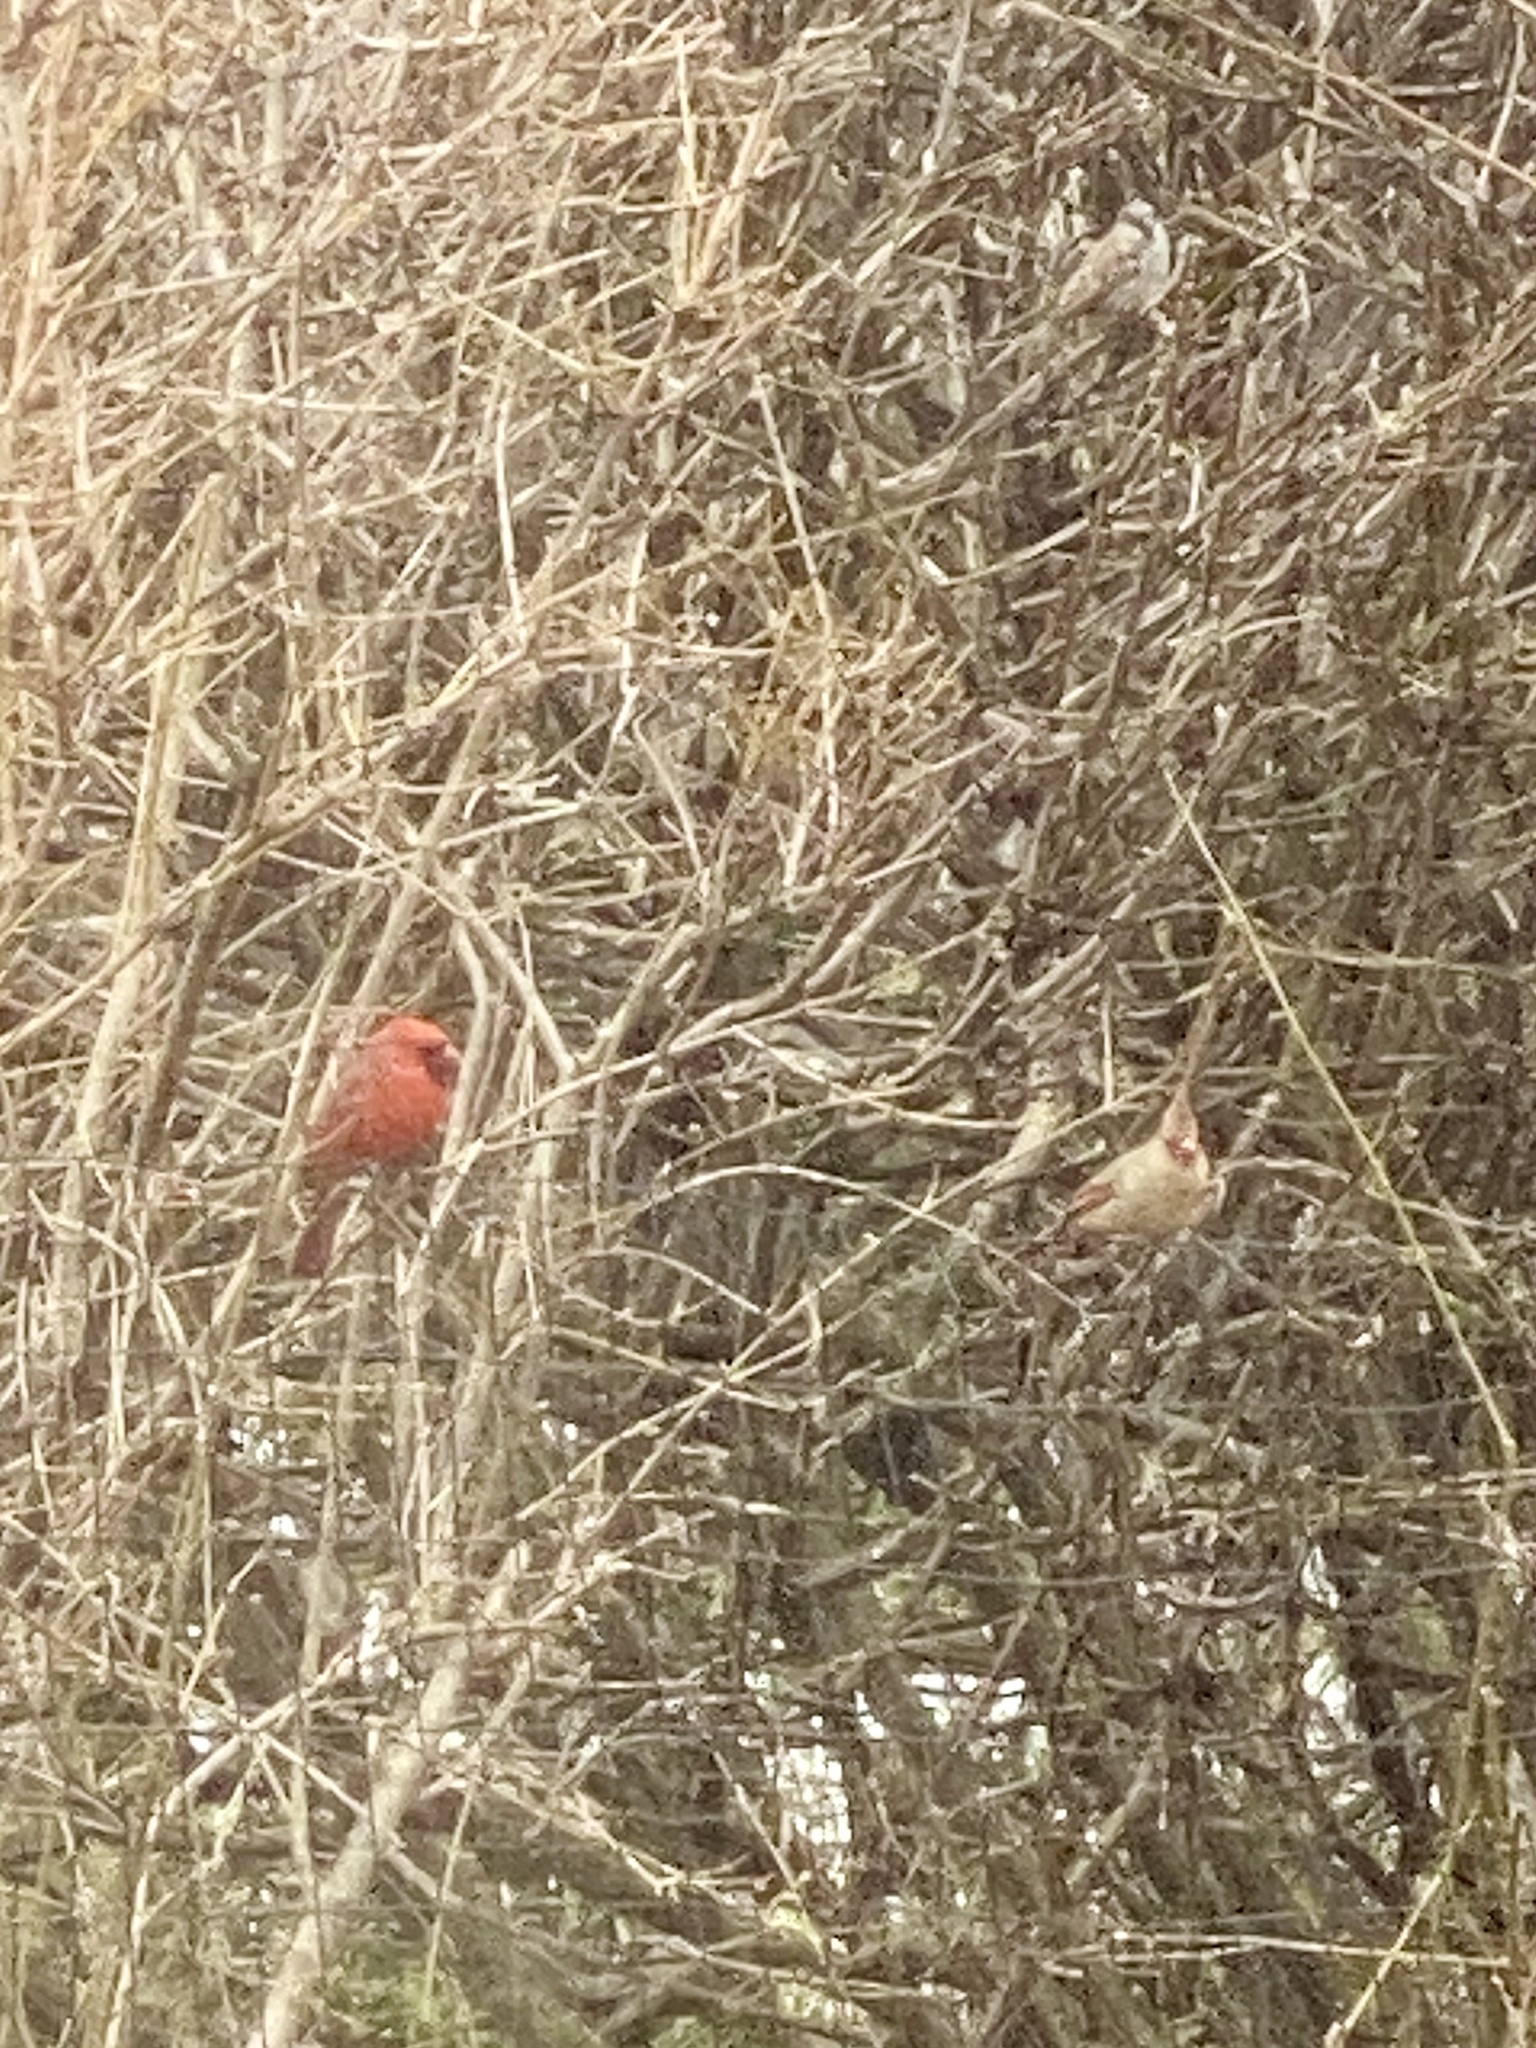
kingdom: Animalia
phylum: Chordata
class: Aves
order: Passeriformes
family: Cardinalidae
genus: Cardinalis
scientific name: Cardinalis cardinalis
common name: Northern cardinal
